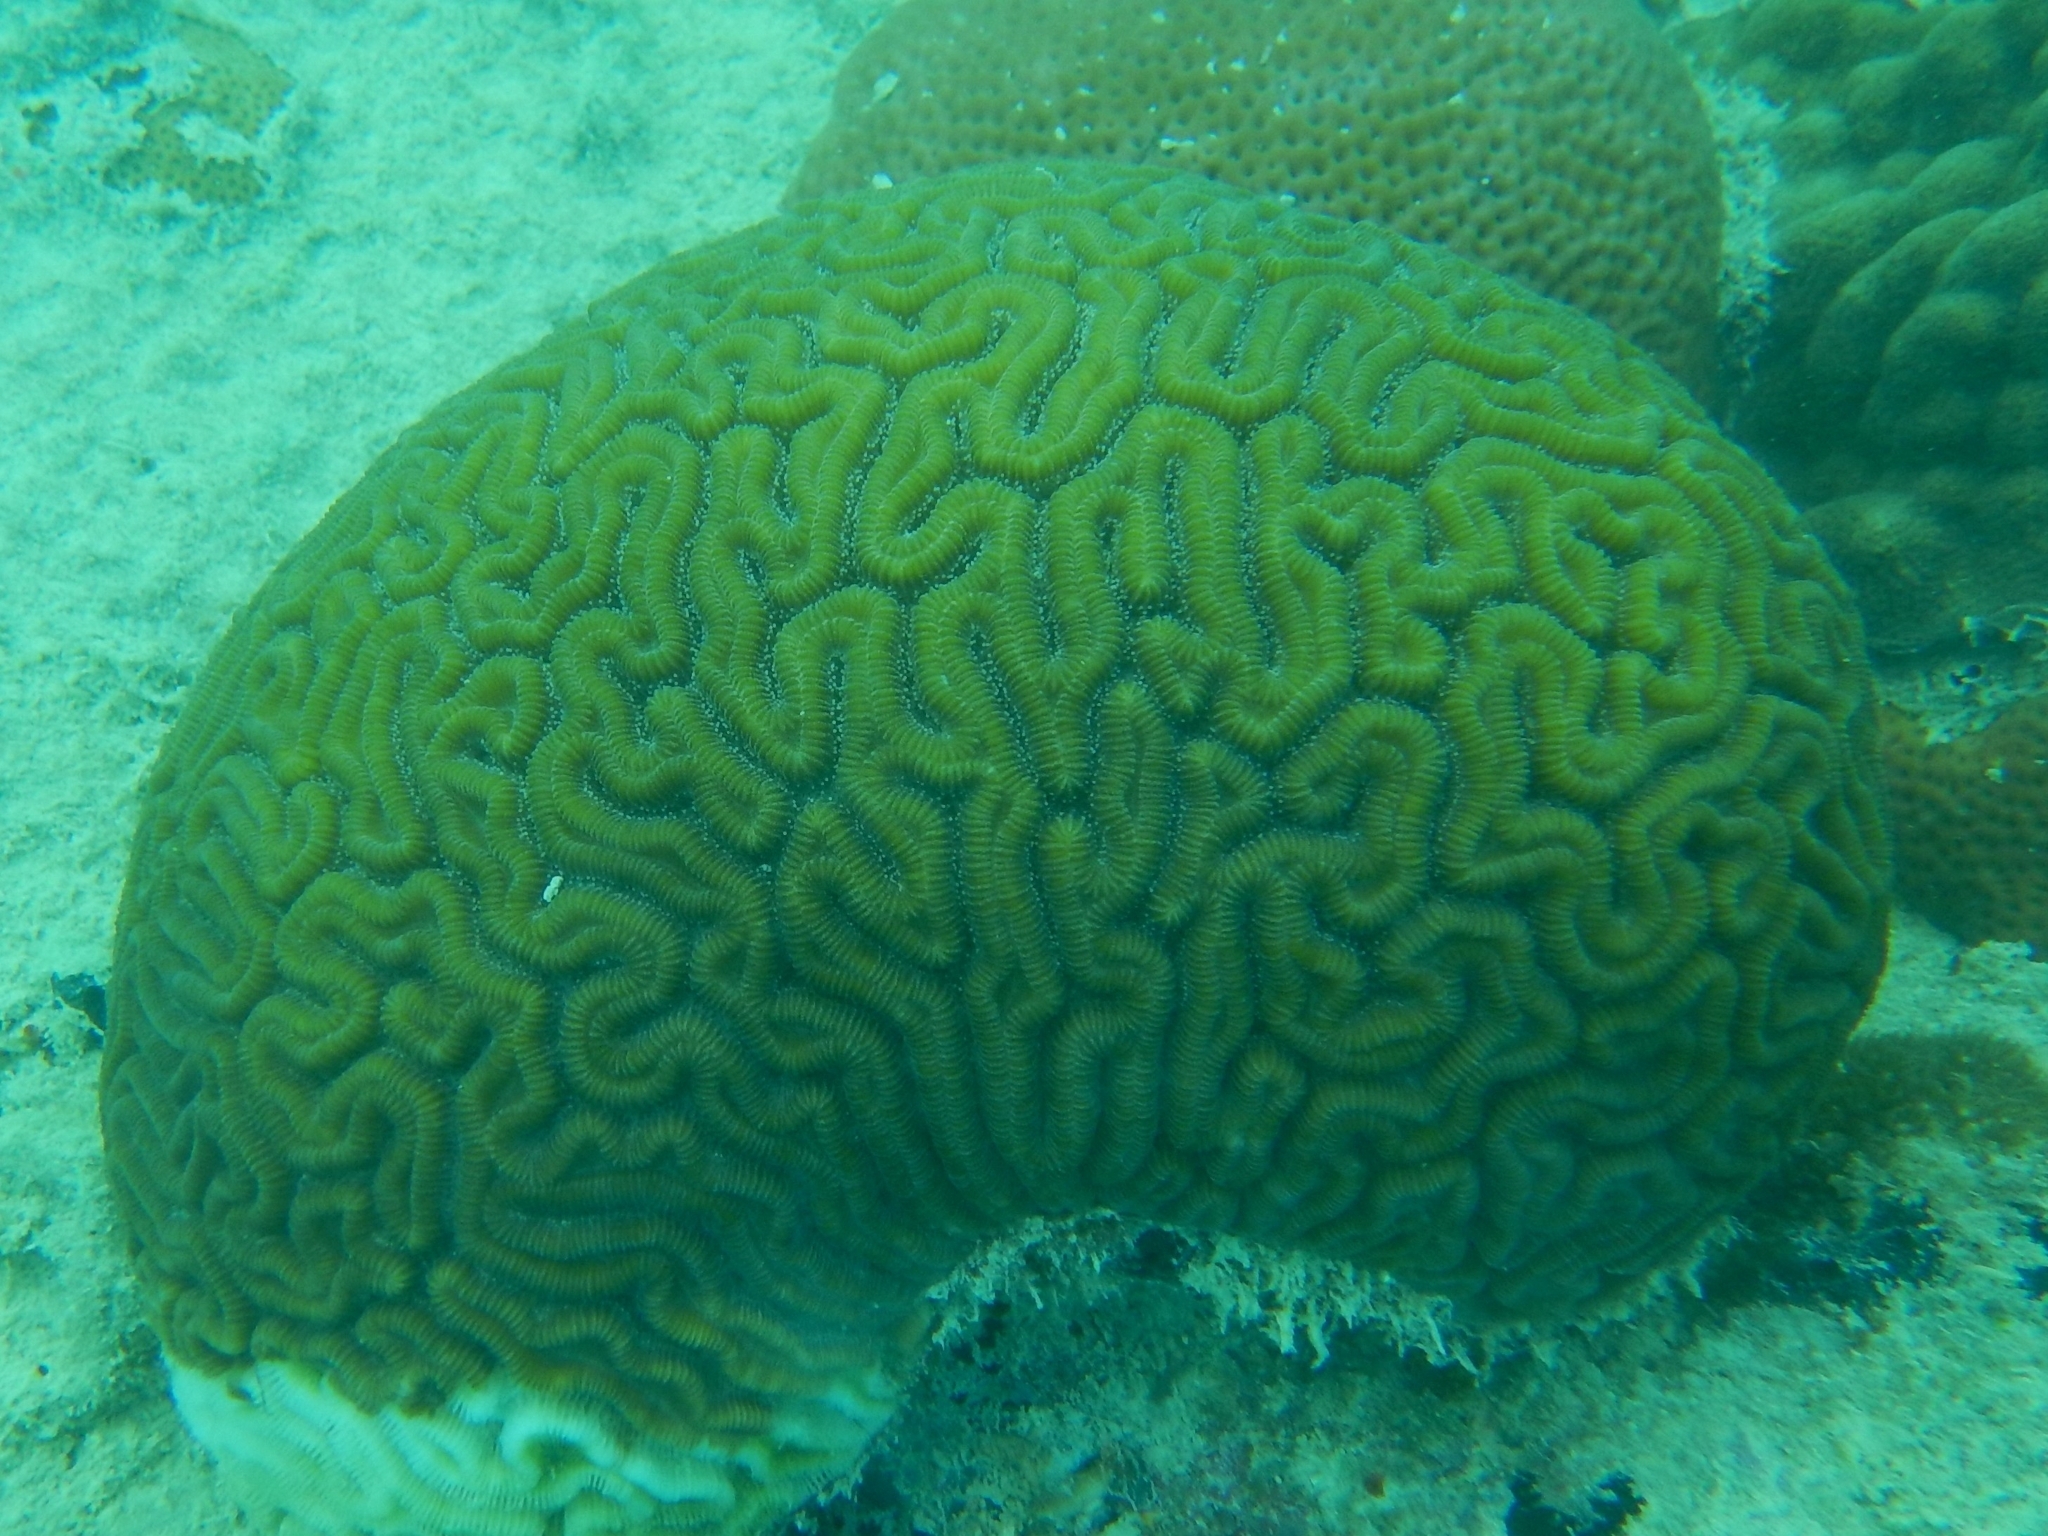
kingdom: Animalia
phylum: Cnidaria
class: Anthozoa
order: Scleractinia
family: Faviidae
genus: Diploria
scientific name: Diploria labyrinthiformis
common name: Grooved brain coral
